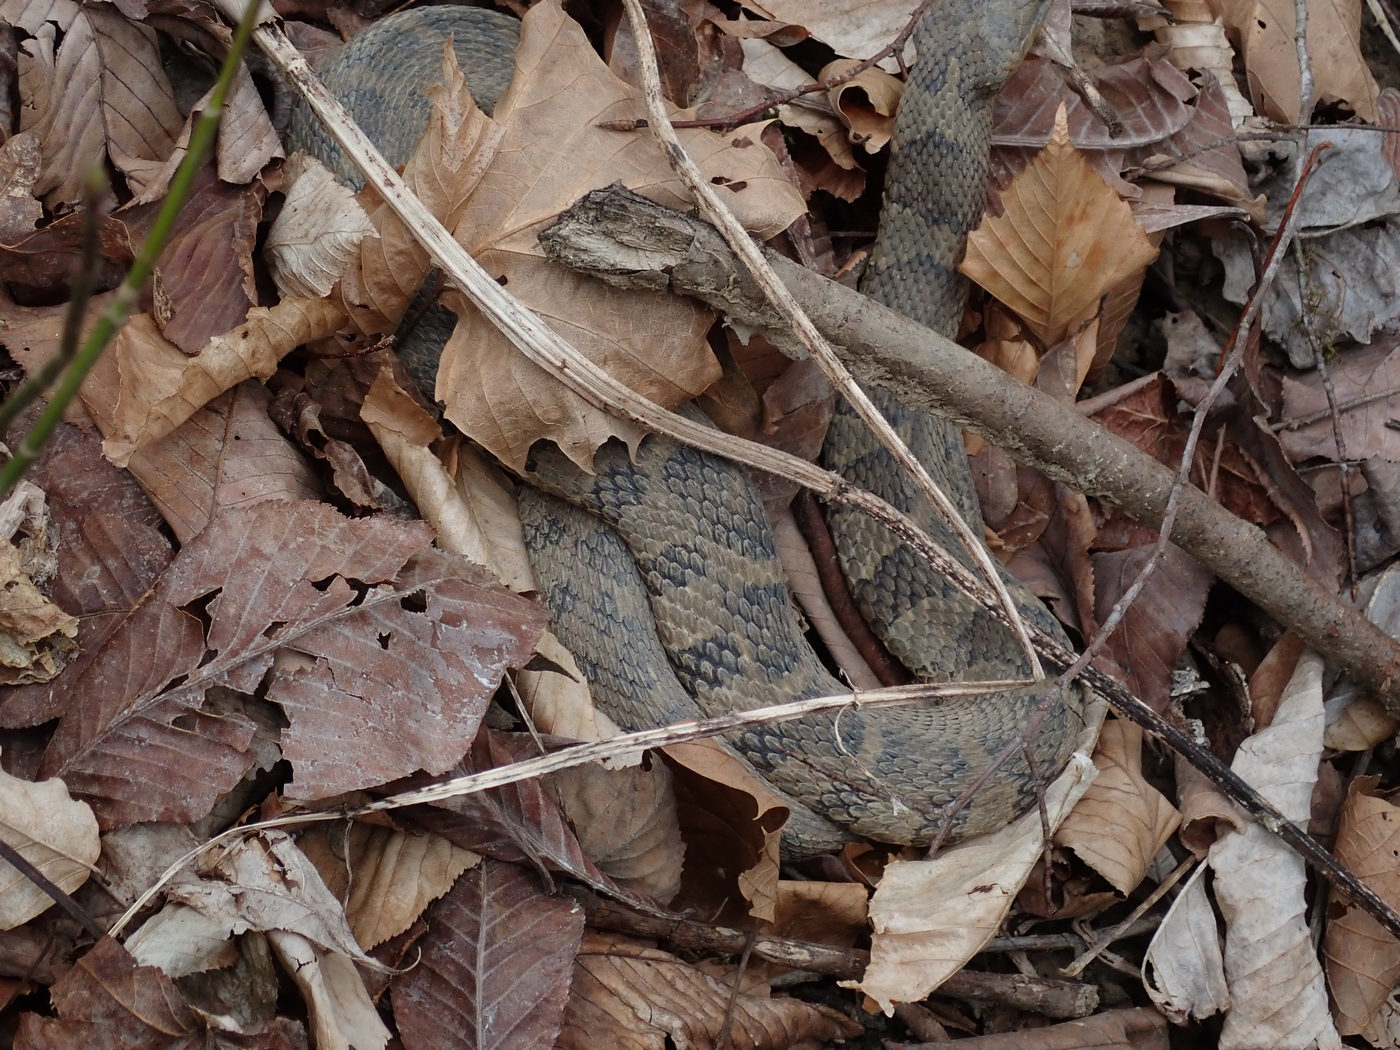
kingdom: Animalia
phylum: Chordata
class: Squamata
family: Colubridae
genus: Nerodia
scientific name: Nerodia sipedon
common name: Northern water snake
